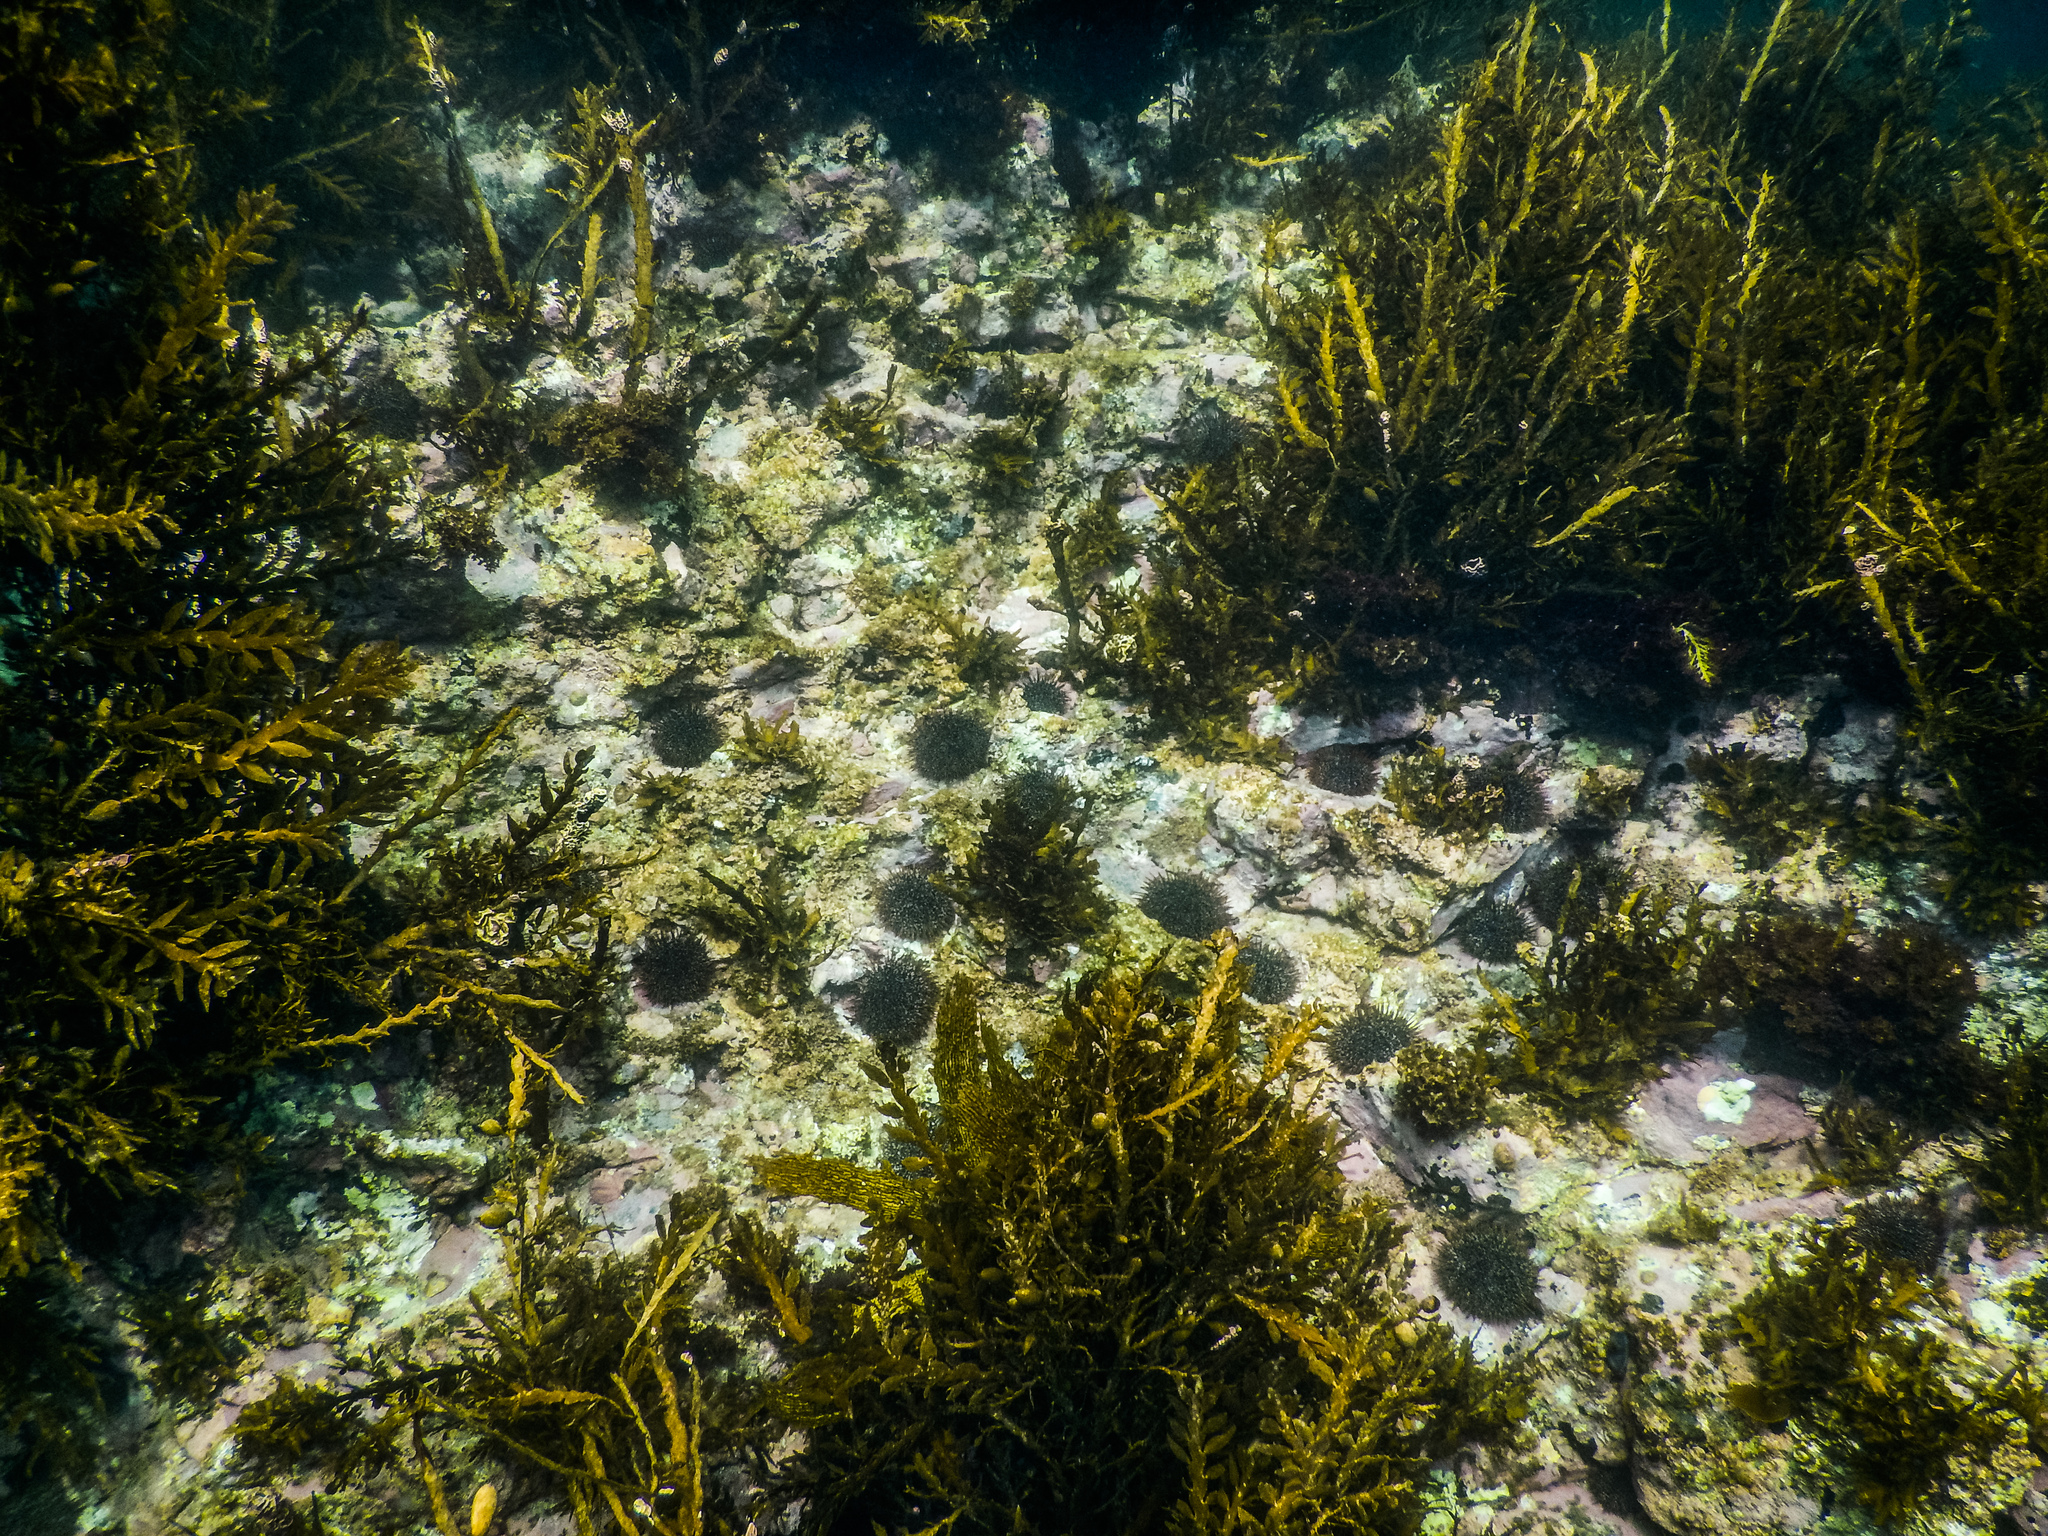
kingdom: Animalia
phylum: Echinodermata
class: Echinoidea
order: Camarodonta
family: Echinometridae
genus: Evechinus
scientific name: Evechinus chloroticus
